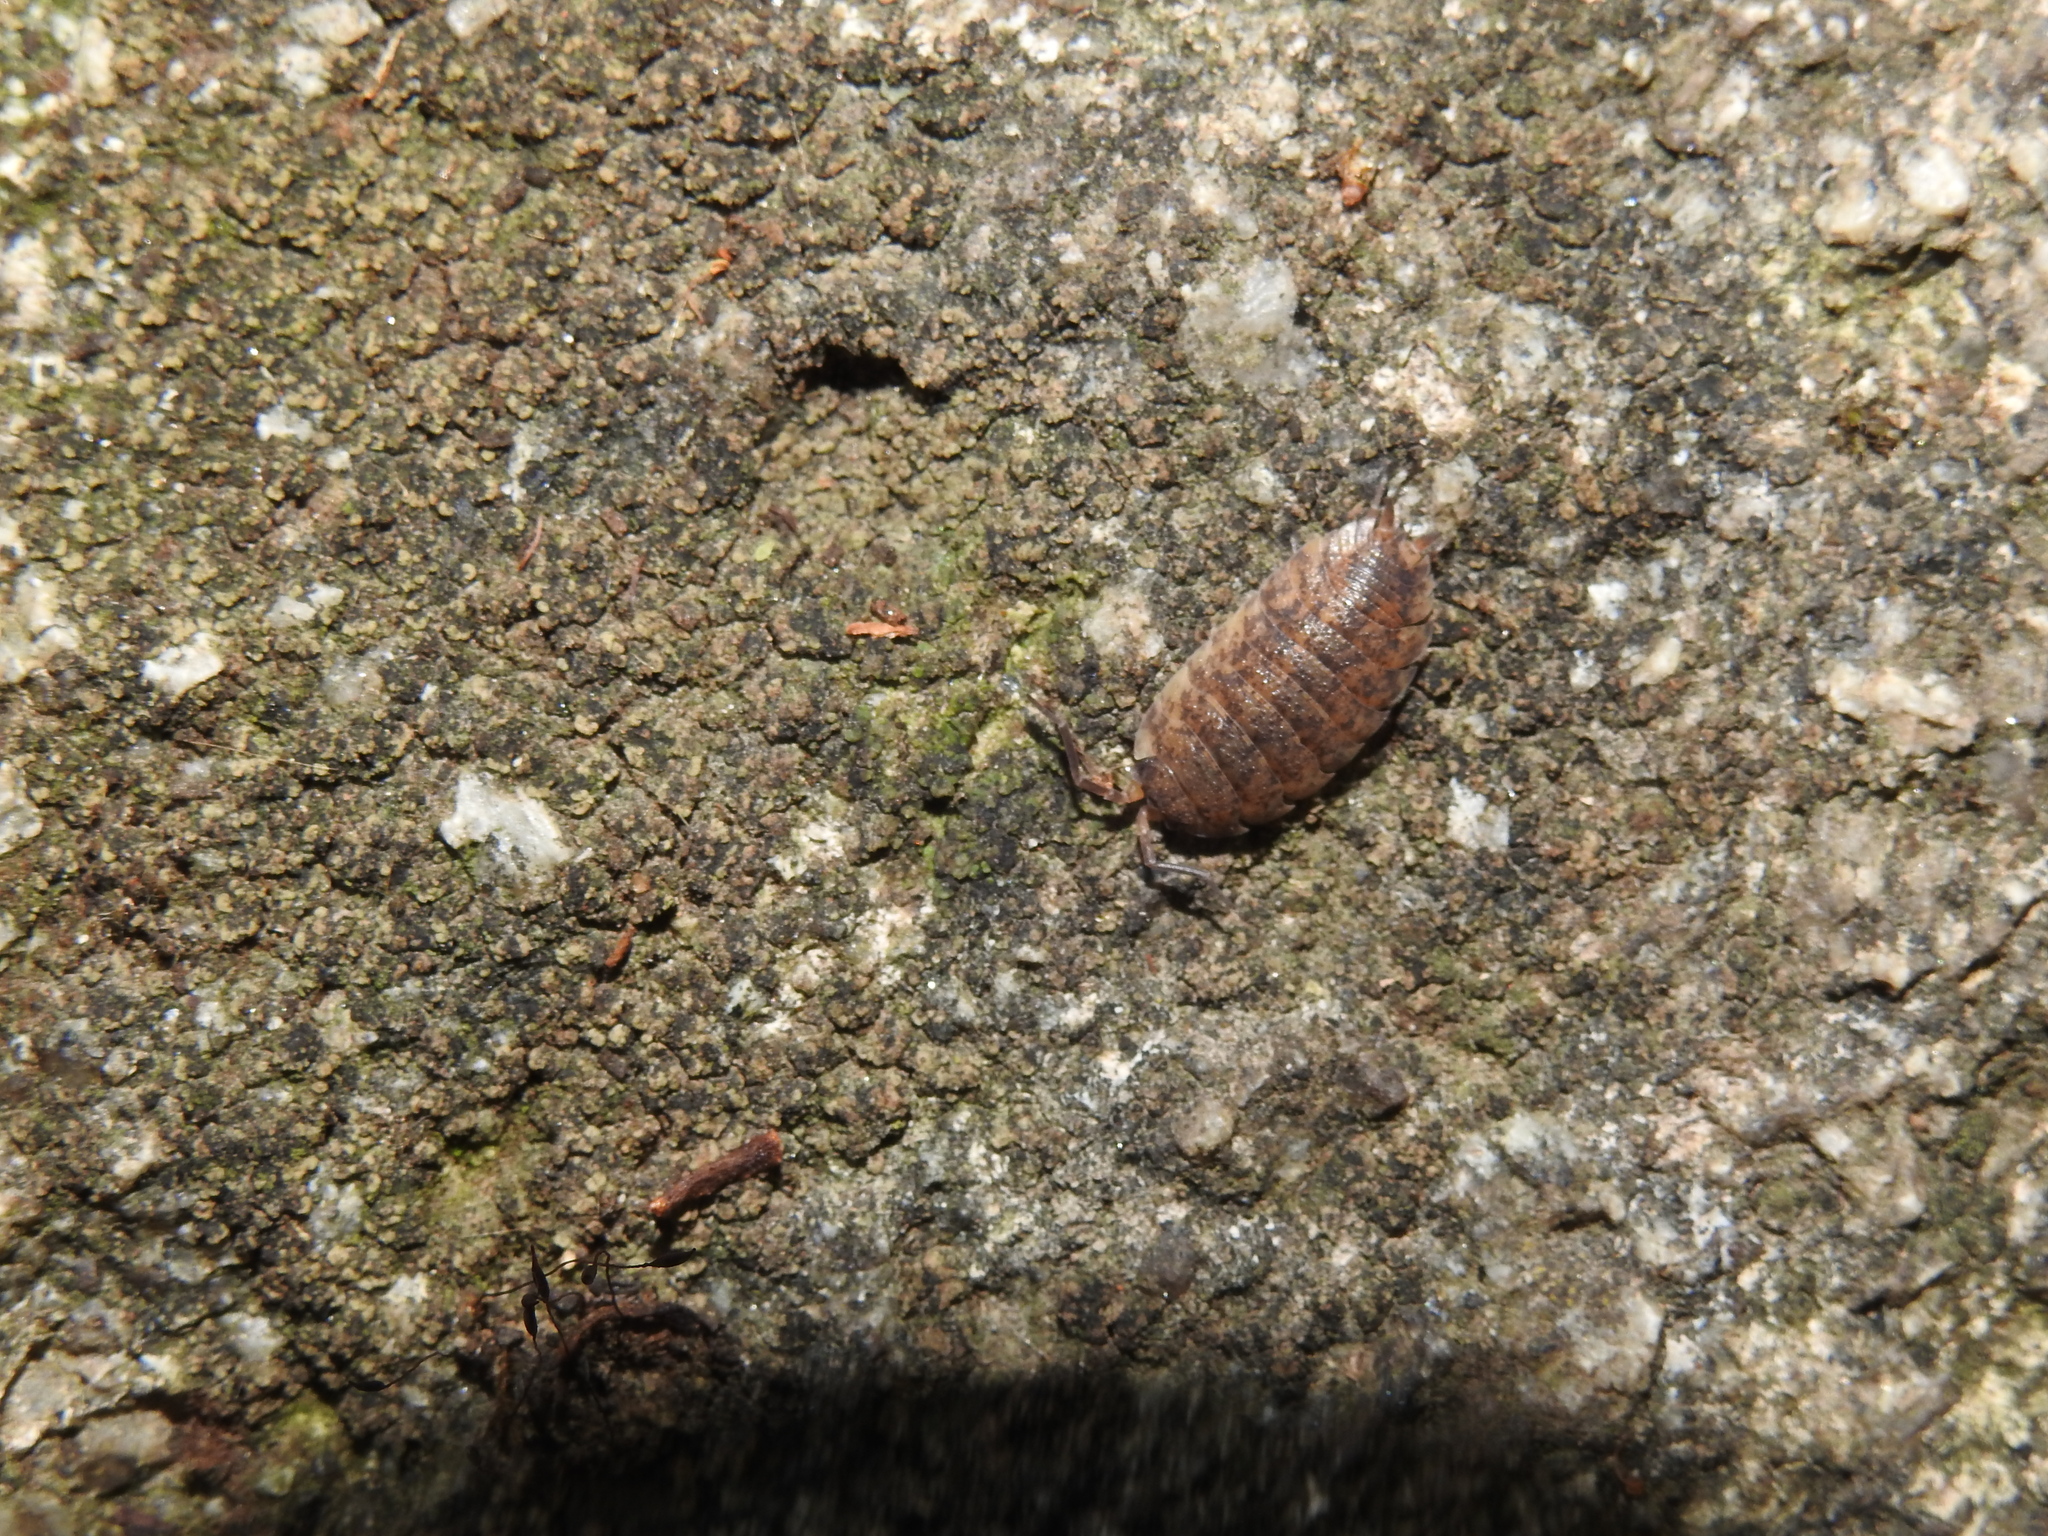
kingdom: Animalia
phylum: Arthropoda
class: Malacostraca
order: Isopoda
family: Porcellionidae
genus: Porcellio
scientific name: Porcellio scaber
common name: Common rough woodlouse
